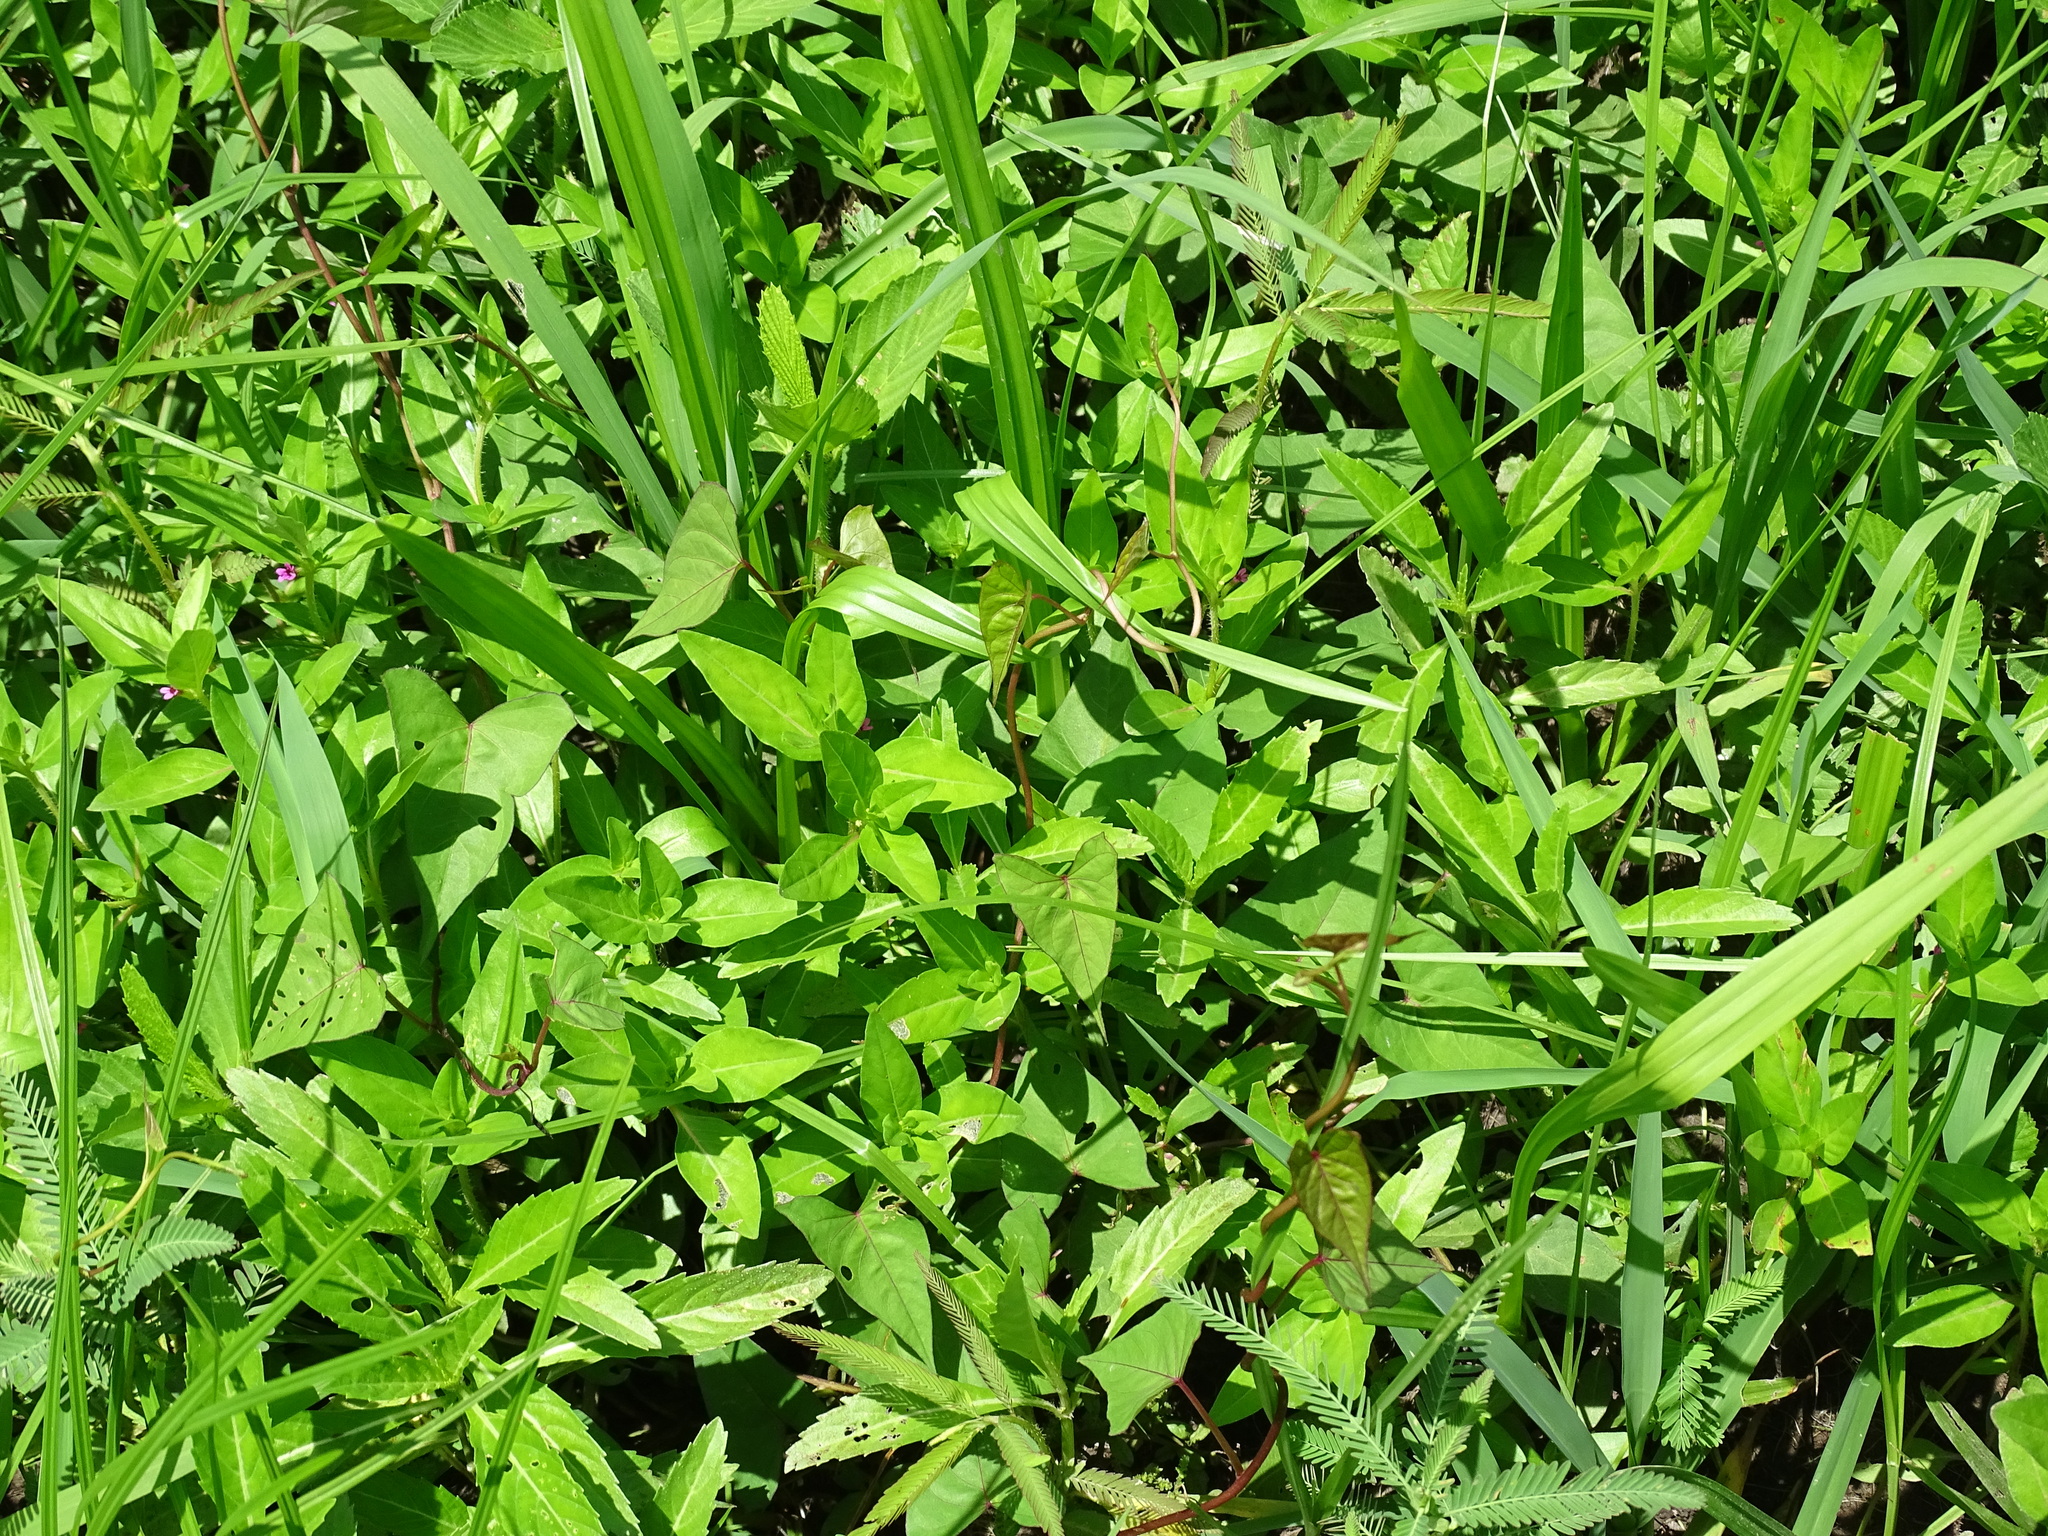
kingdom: Plantae
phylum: Tracheophyta
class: Magnoliopsida
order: Myrtales
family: Lythraceae
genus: Cuphea
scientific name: Cuphea carthagenensis
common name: Colombian waxweed
